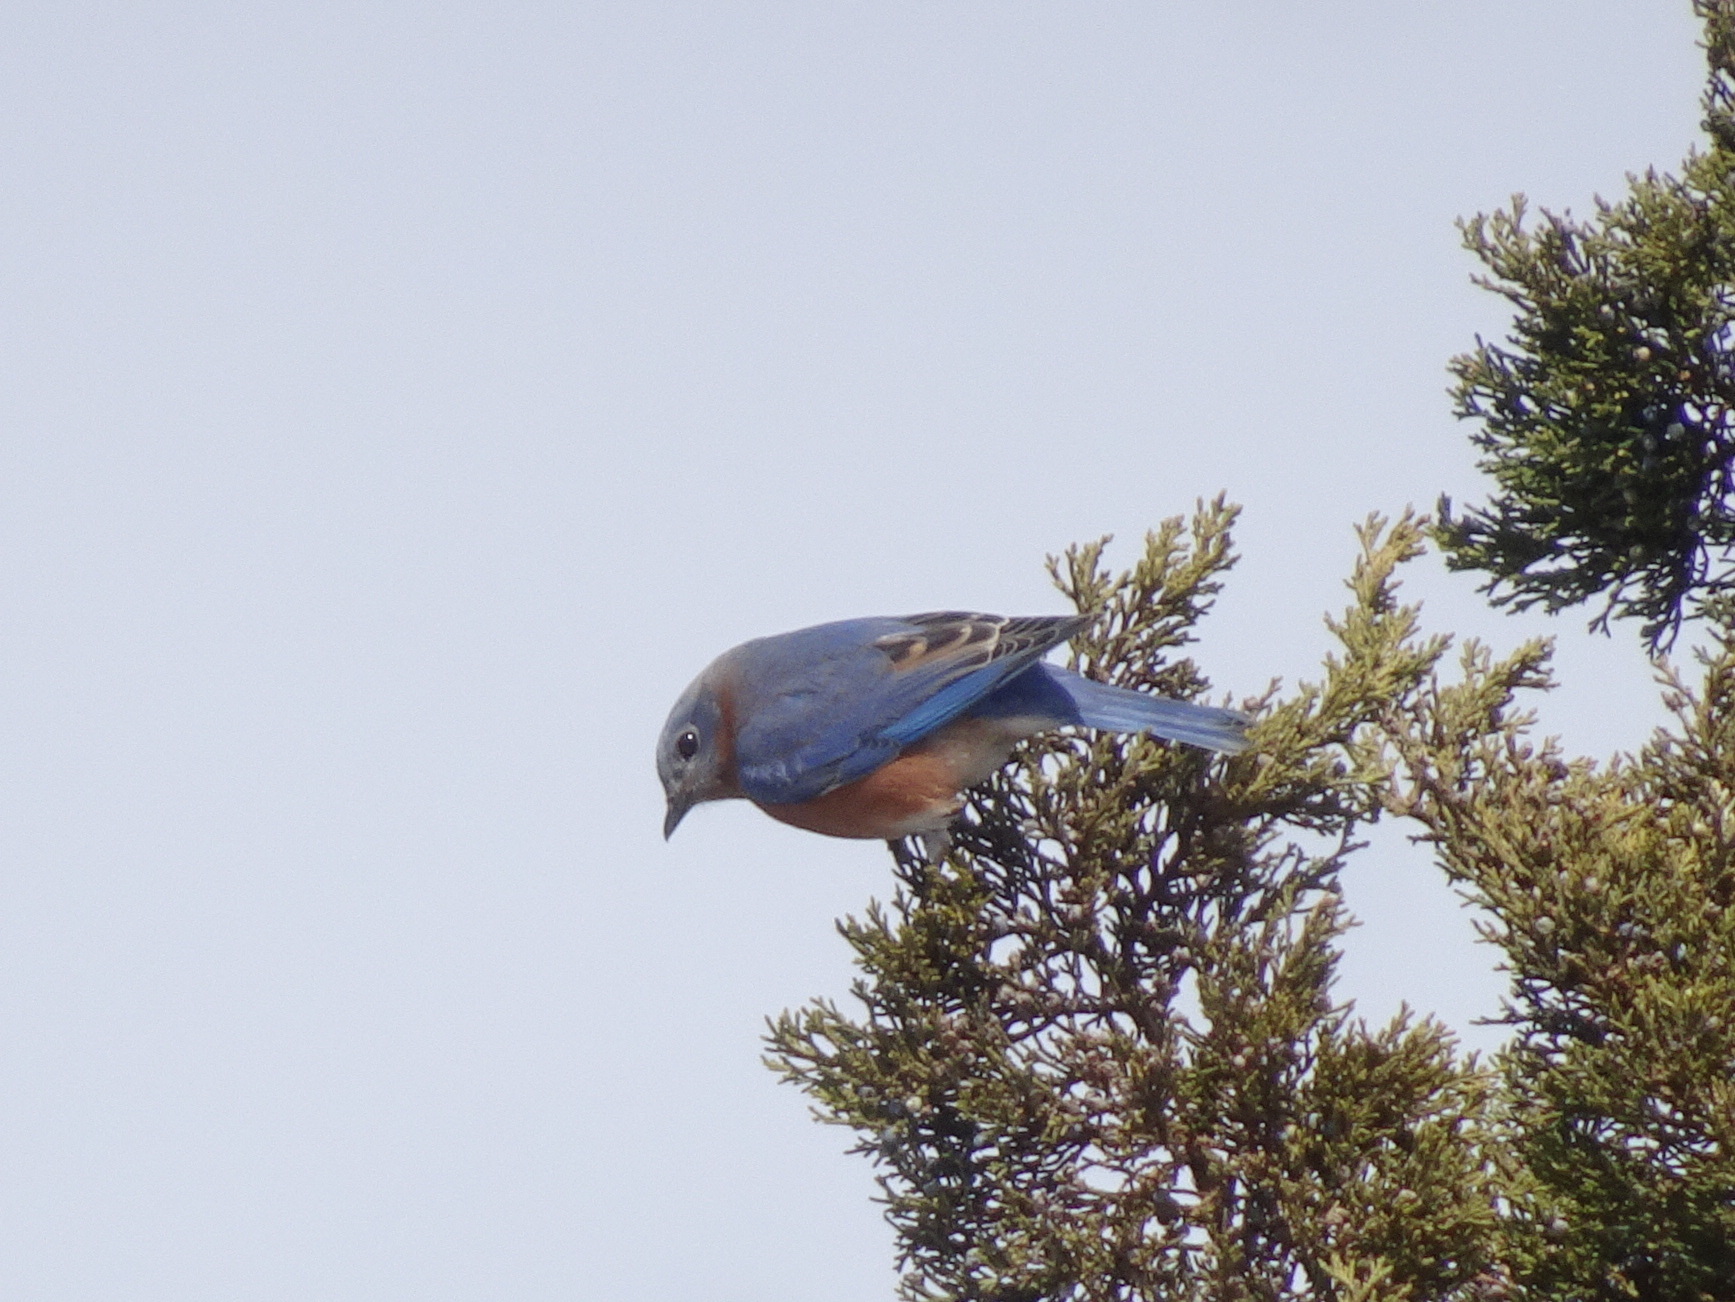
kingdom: Animalia
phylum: Chordata
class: Aves
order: Passeriformes
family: Turdidae
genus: Sialia
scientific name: Sialia sialis
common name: Eastern bluebird
